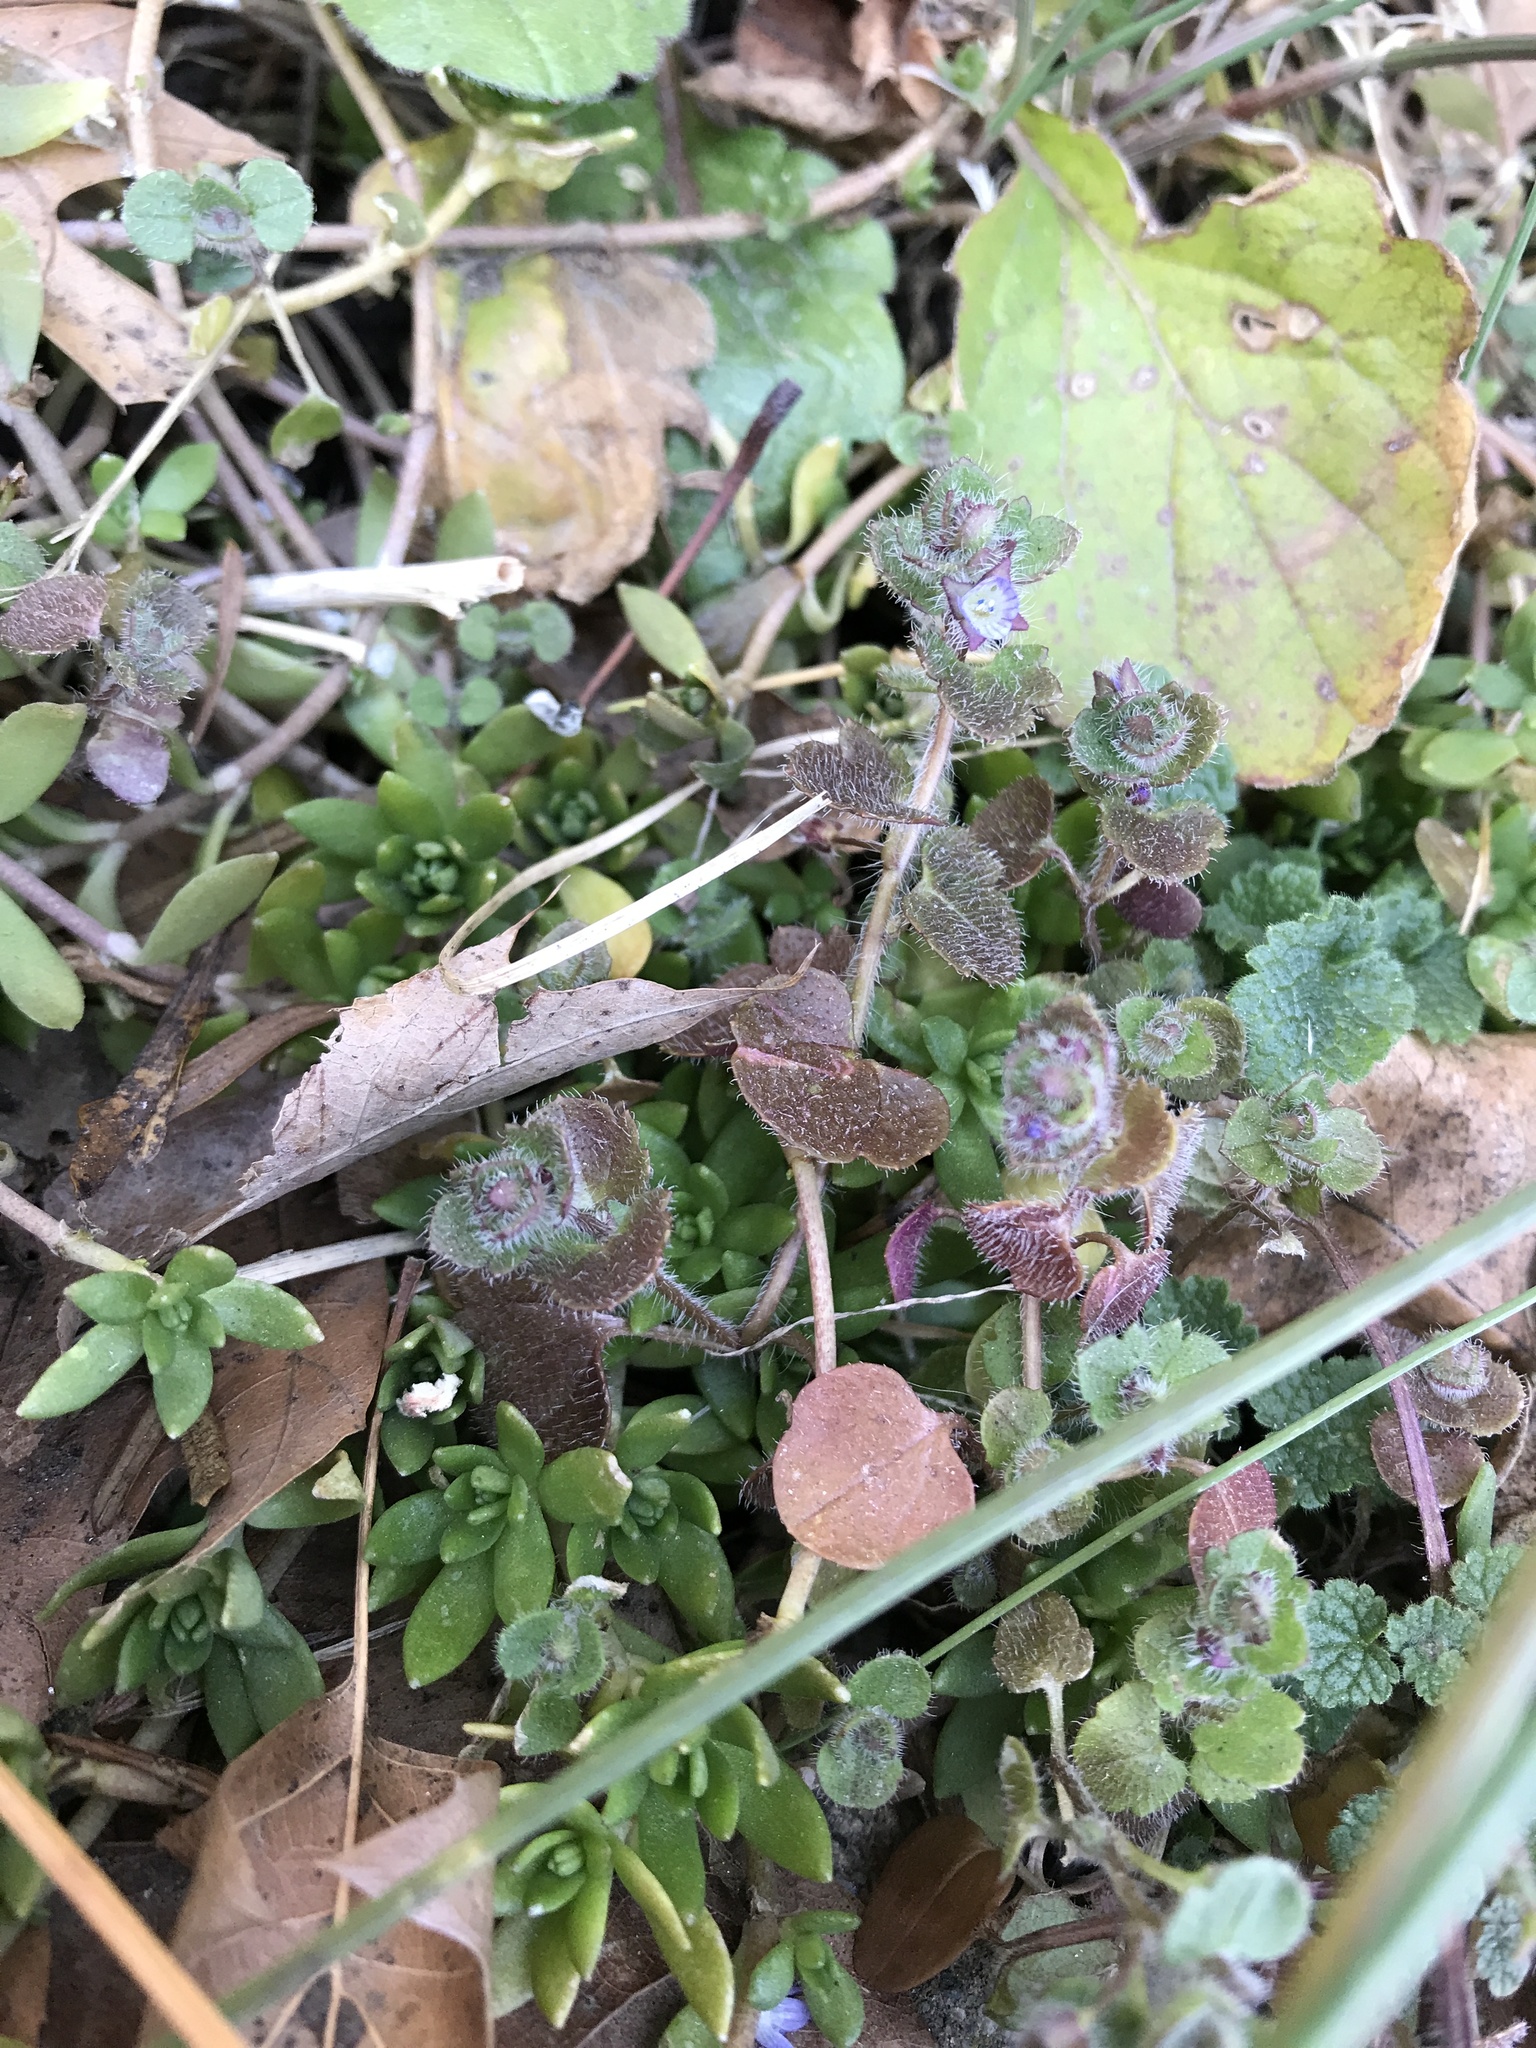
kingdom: Plantae
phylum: Tracheophyta
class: Magnoliopsida
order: Lamiales
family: Plantaginaceae
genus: Veronica
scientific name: Veronica hederifolia
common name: Ivy-leaved speedwell
